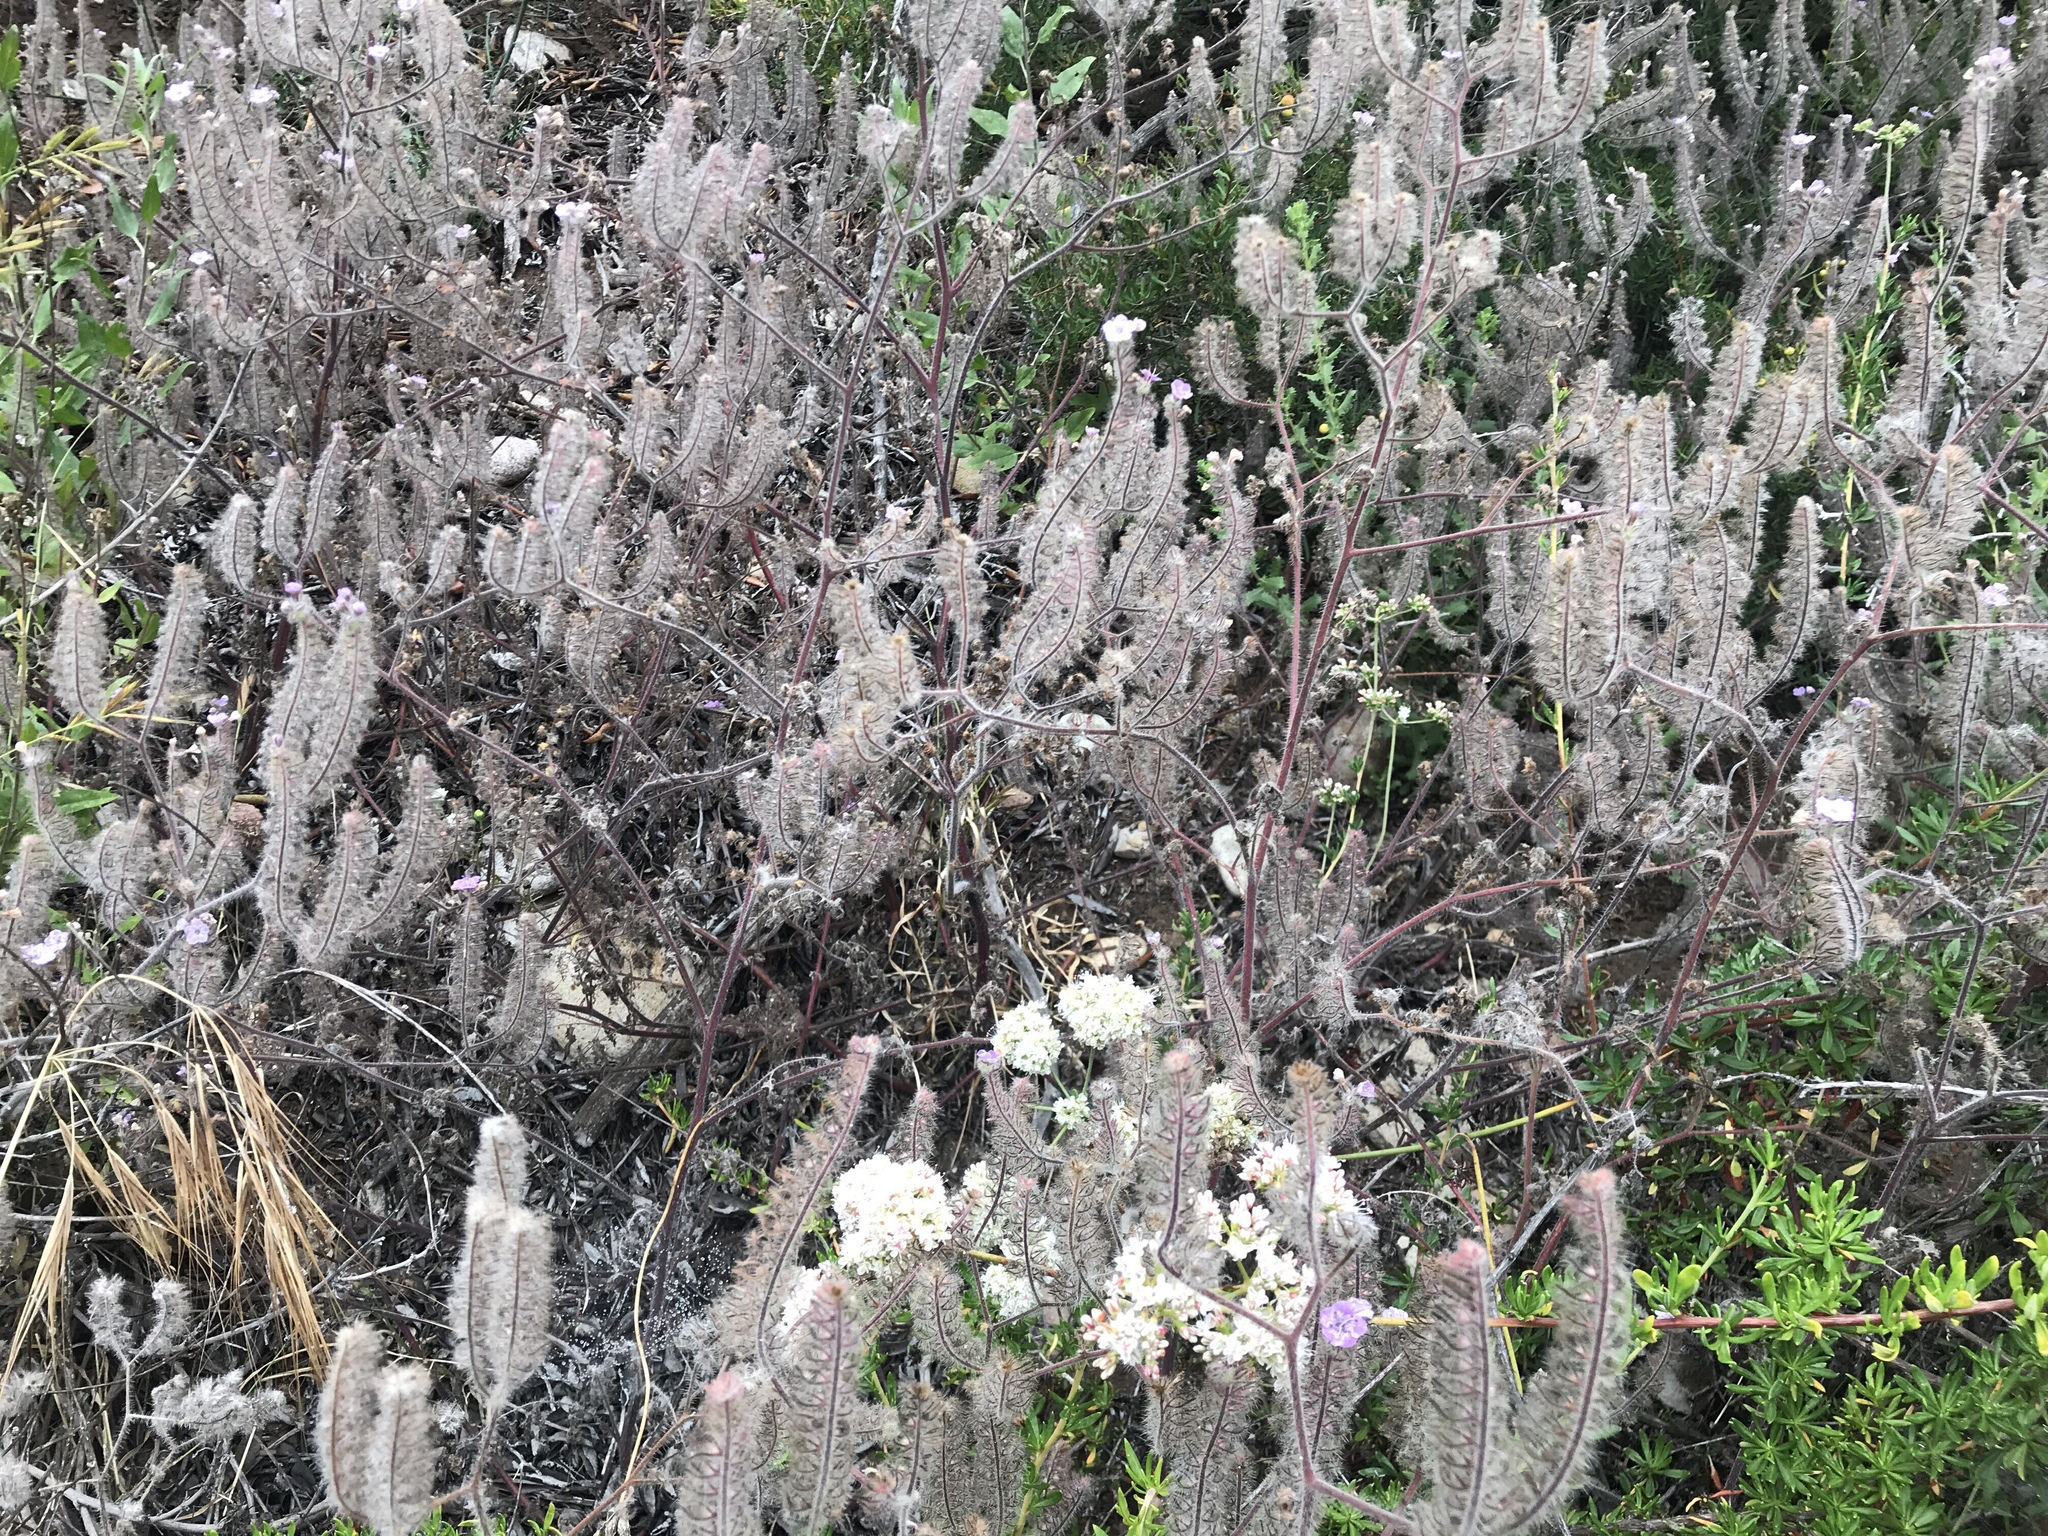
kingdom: Plantae
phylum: Tracheophyta
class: Magnoliopsida
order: Boraginales
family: Hydrophyllaceae
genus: Phacelia
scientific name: Phacelia cicutaria
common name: Caterpillar phacelia
